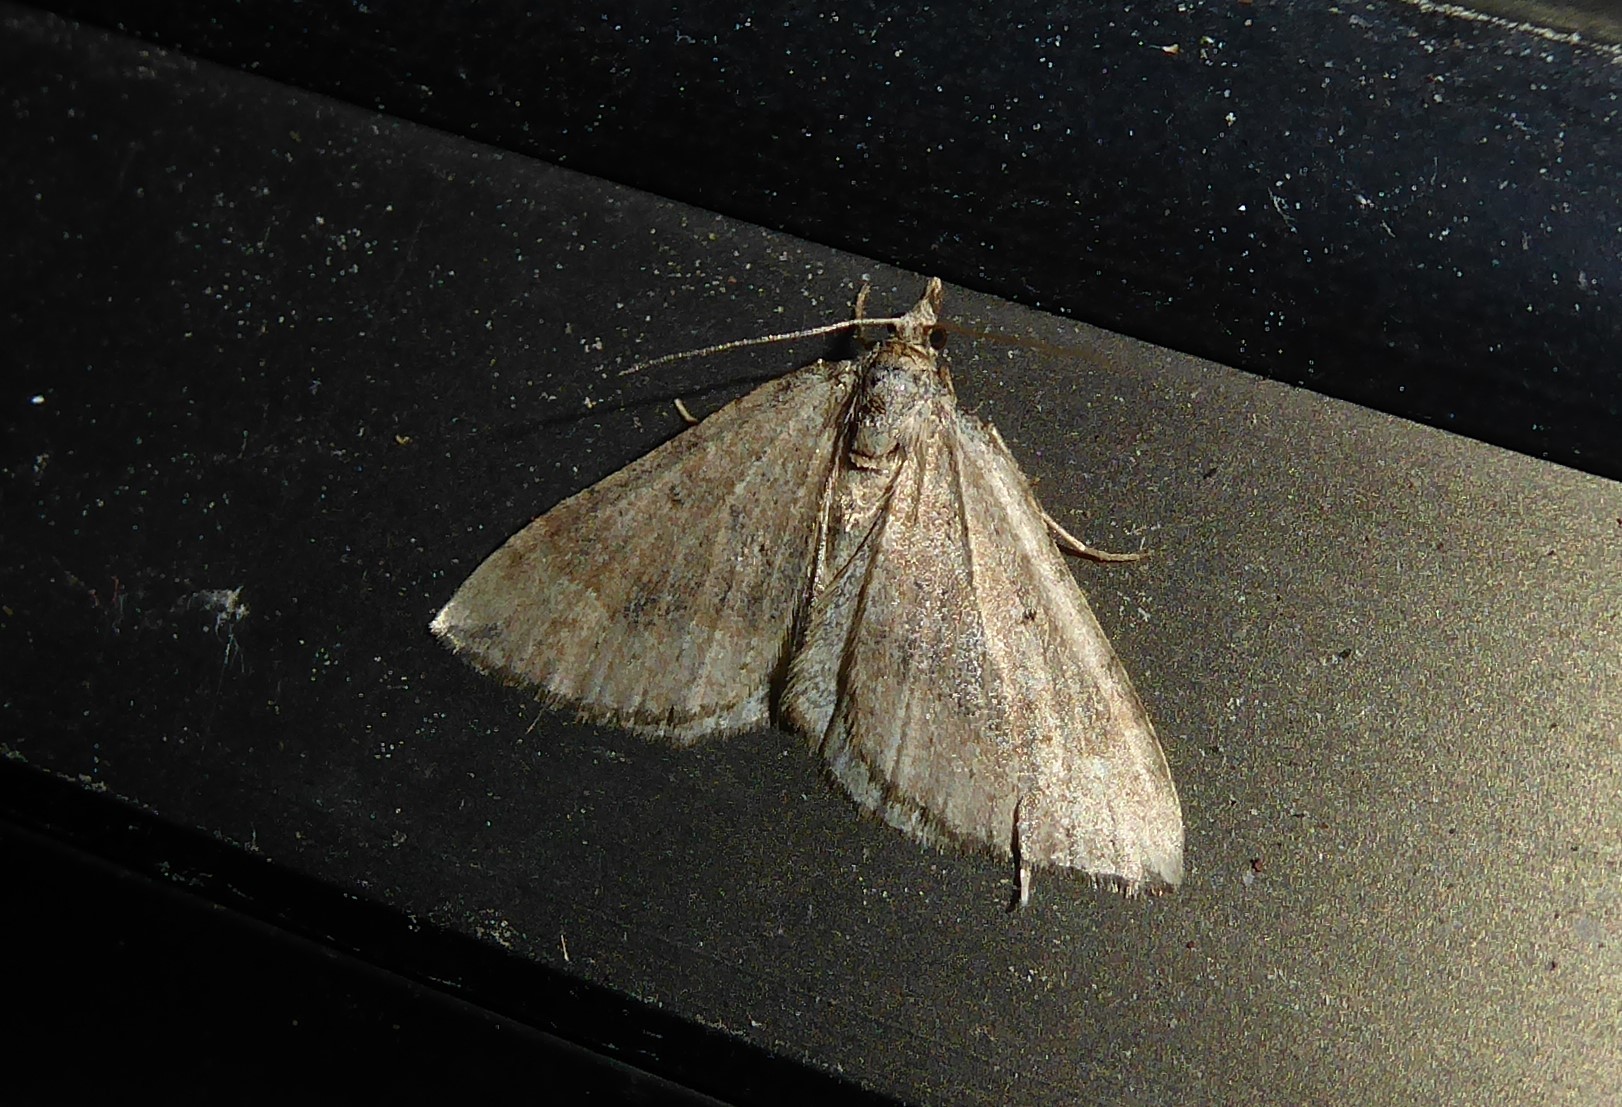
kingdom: Animalia
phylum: Arthropoda
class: Insecta
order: Lepidoptera
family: Geometridae
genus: Epyaxa
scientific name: Epyaxa rosearia
